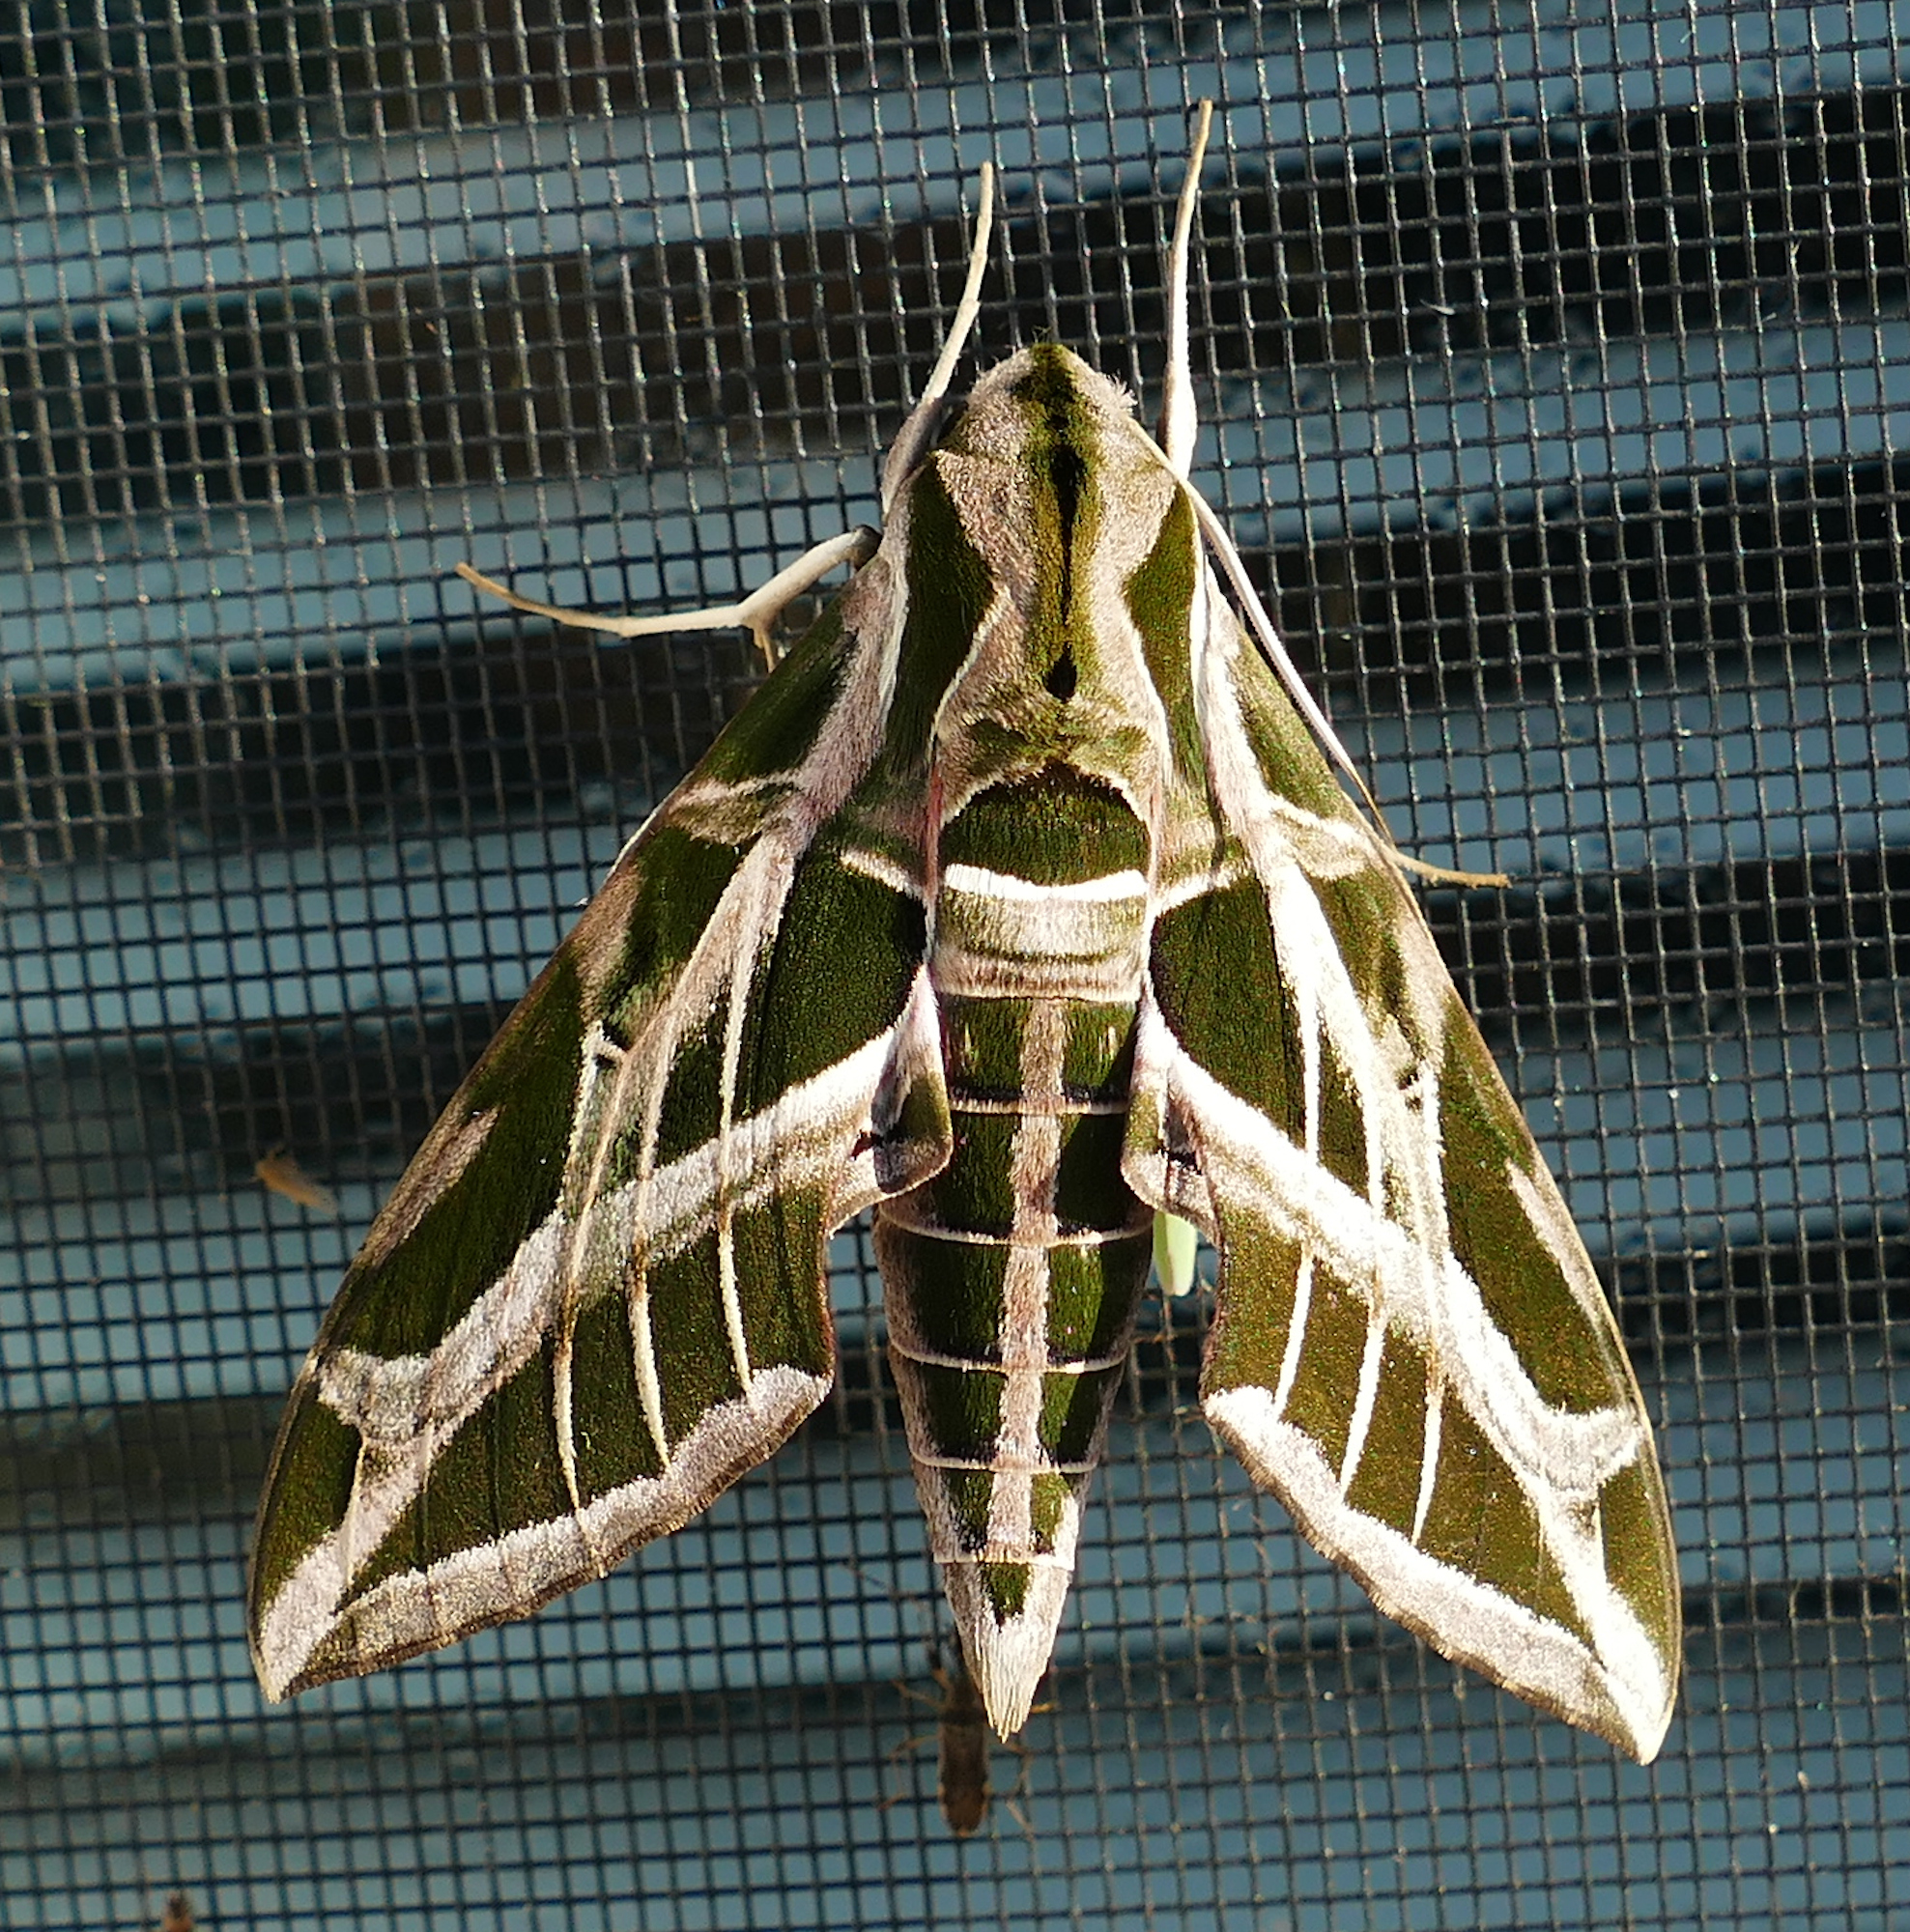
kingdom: Animalia
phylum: Arthropoda
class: Insecta
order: Lepidoptera
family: Sphingidae
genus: Eumorpha
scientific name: Eumorpha vitis
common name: Vine sphinx
